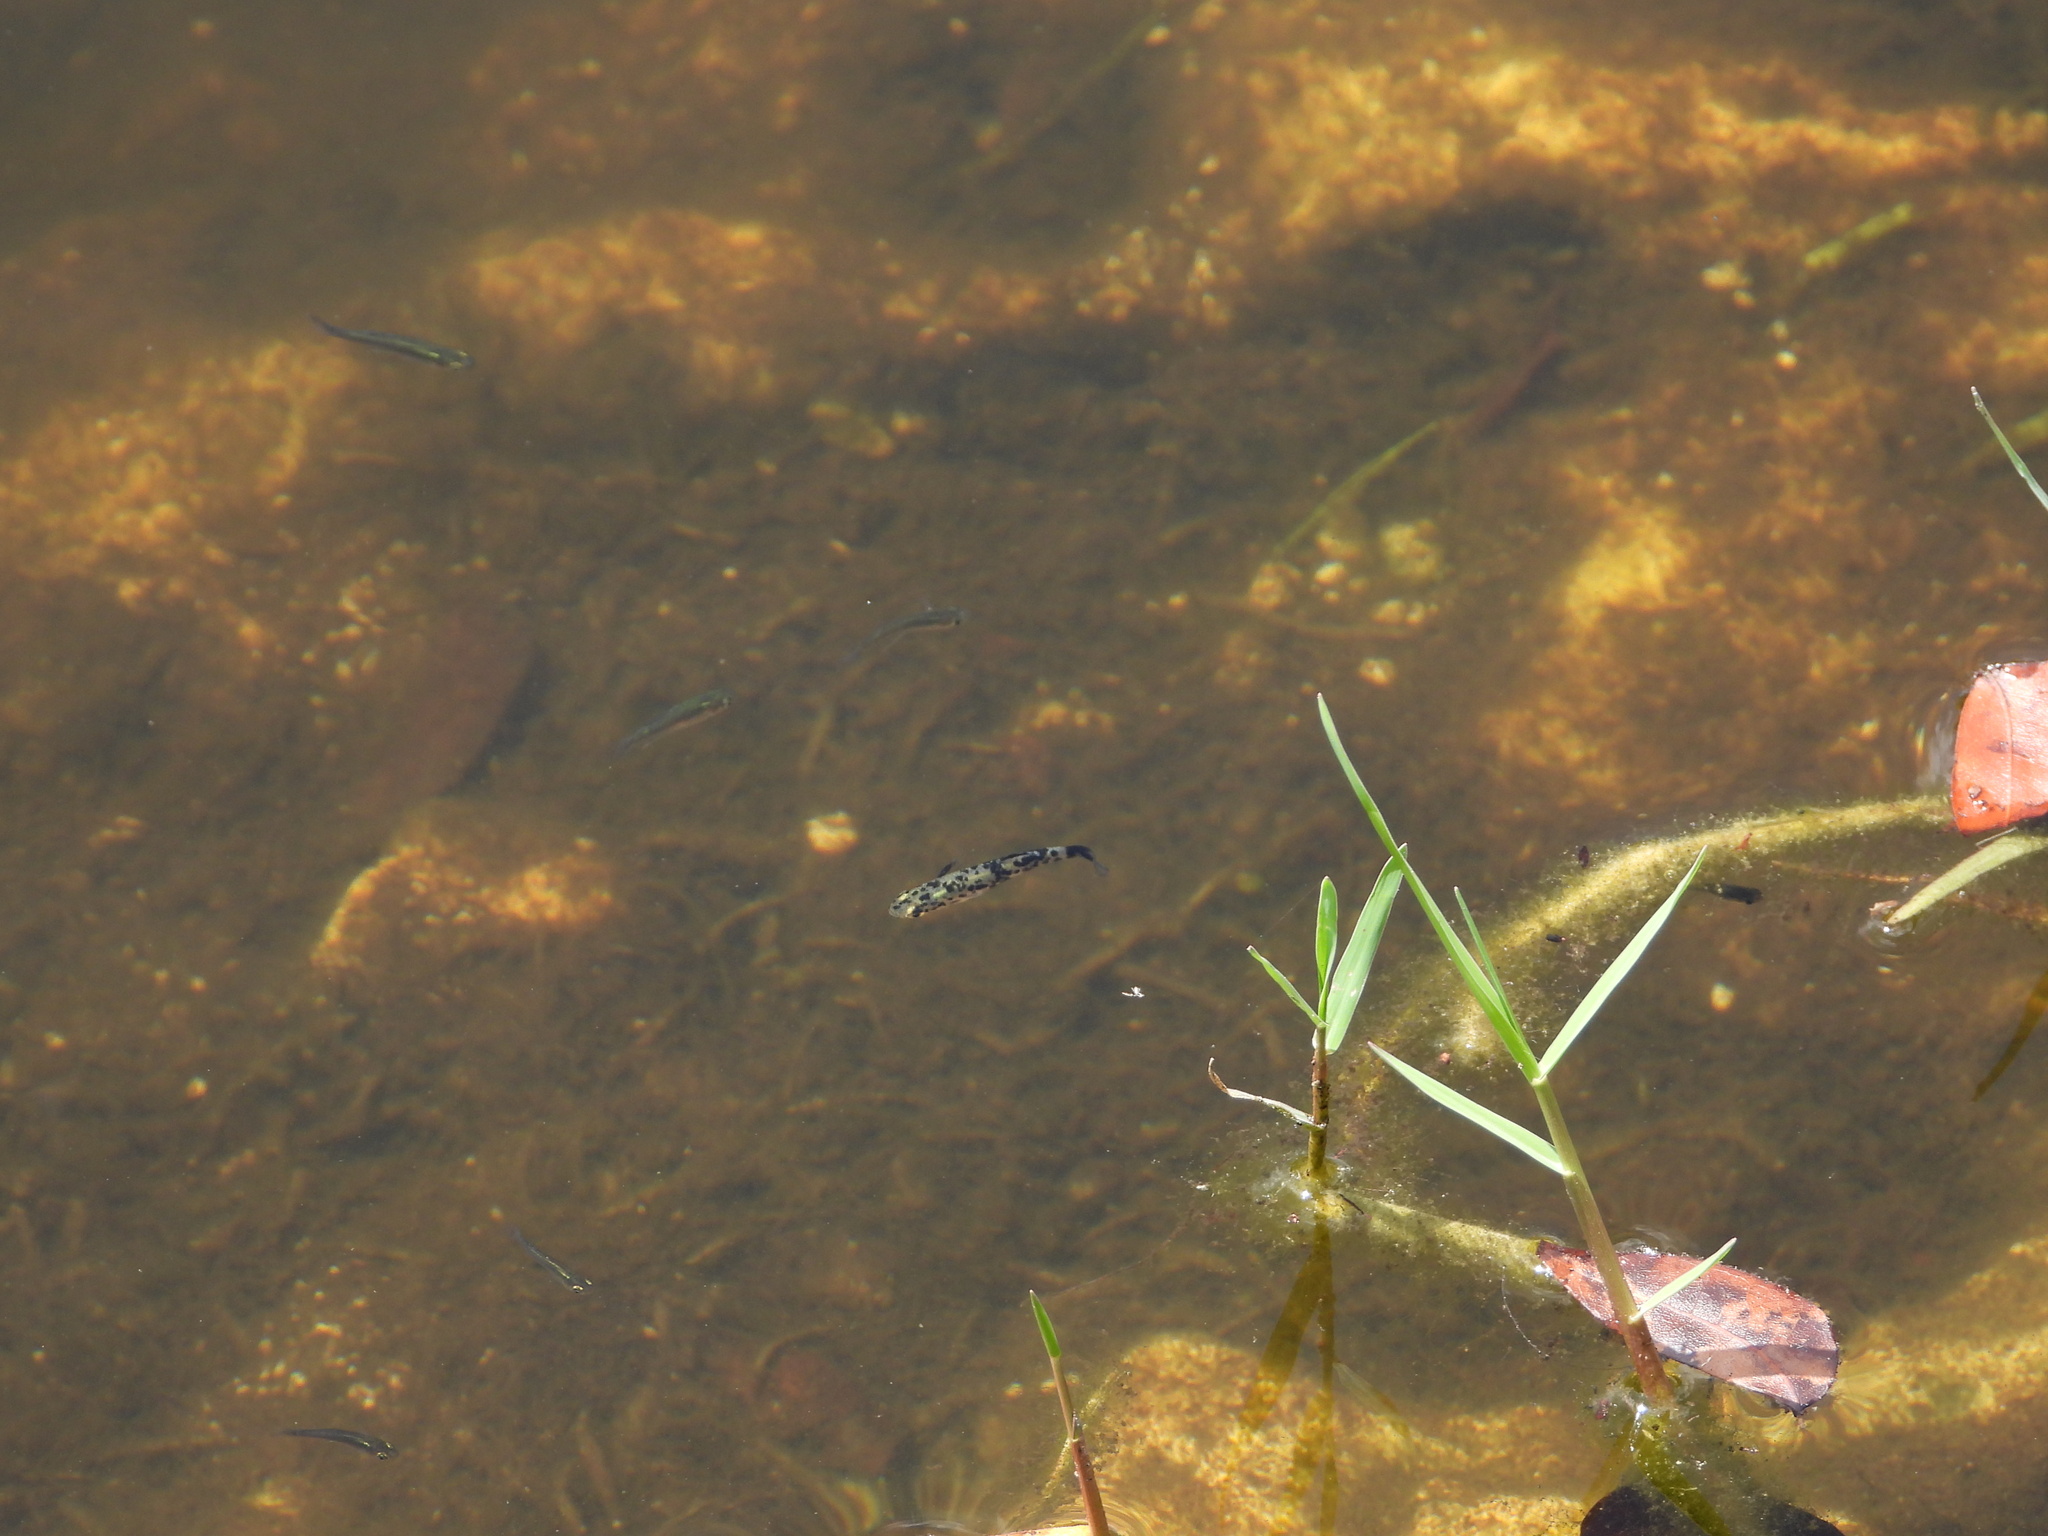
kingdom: Animalia
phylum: Chordata
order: Cyprinodontiformes
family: Poeciliidae
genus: Gambusia
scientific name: Gambusia holbrooki
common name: Eastern mosquitofish
